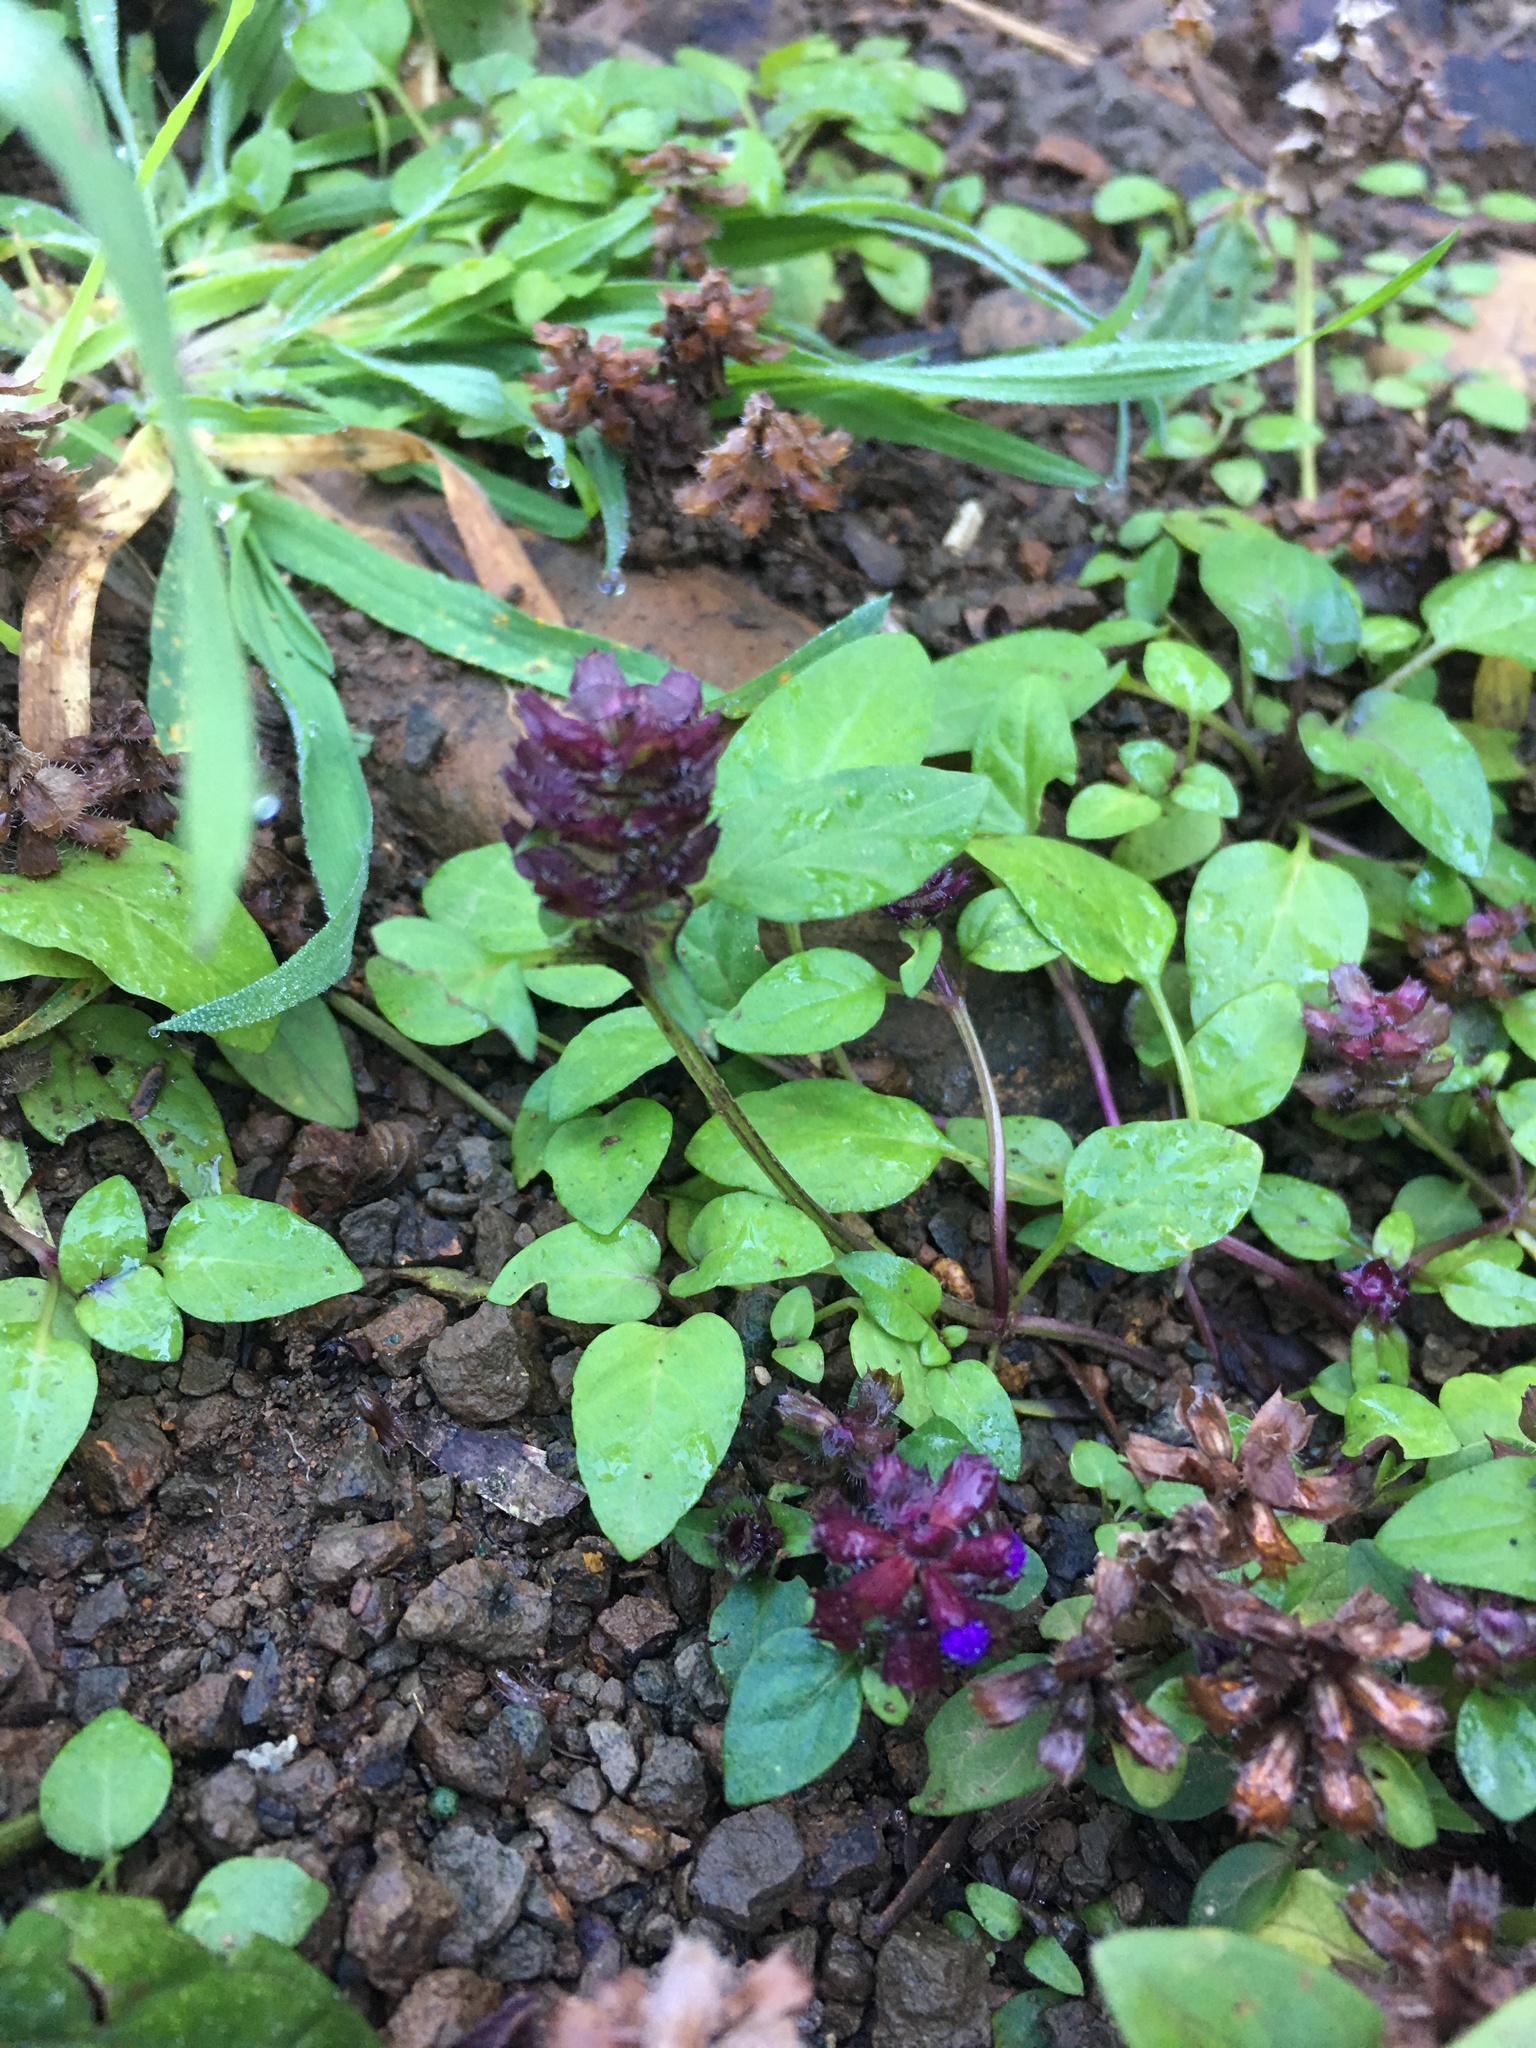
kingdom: Plantae
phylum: Tracheophyta
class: Magnoliopsida
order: Lamiales
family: Lamiaceae
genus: Prunella
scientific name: Prunella vulgaris
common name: Heal-all
